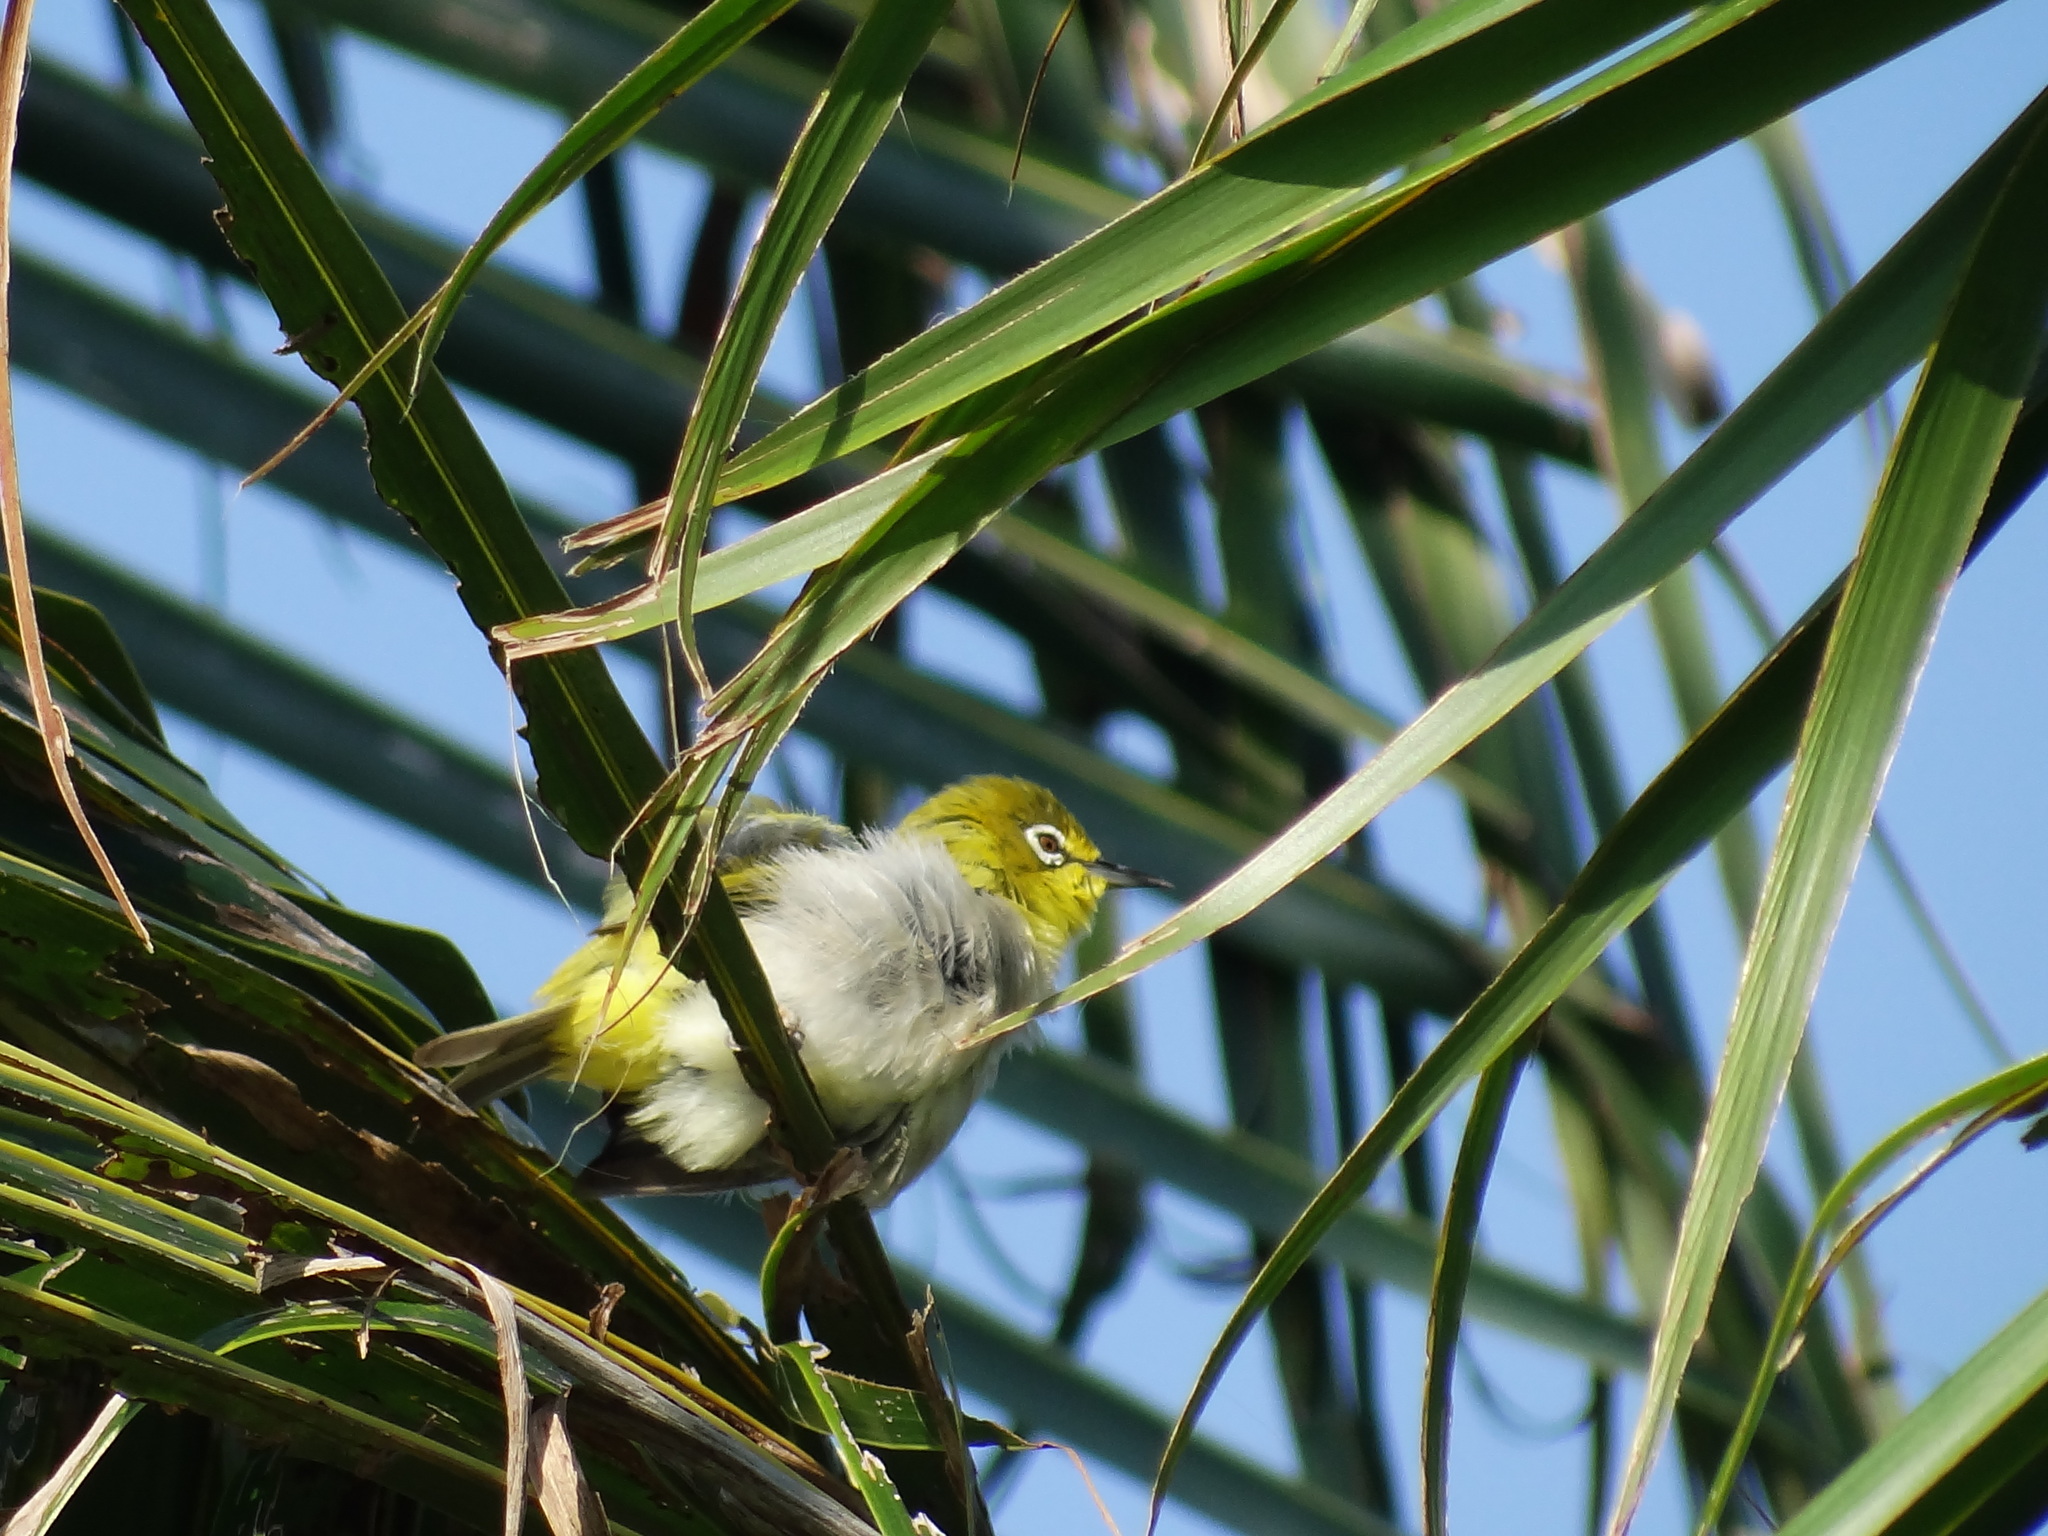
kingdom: Animalia
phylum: Chordata
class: Aves
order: Passeriformes
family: Zosteropidae
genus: Zosterops
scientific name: Zosterops simplex
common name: Swinhoe's white-eye
